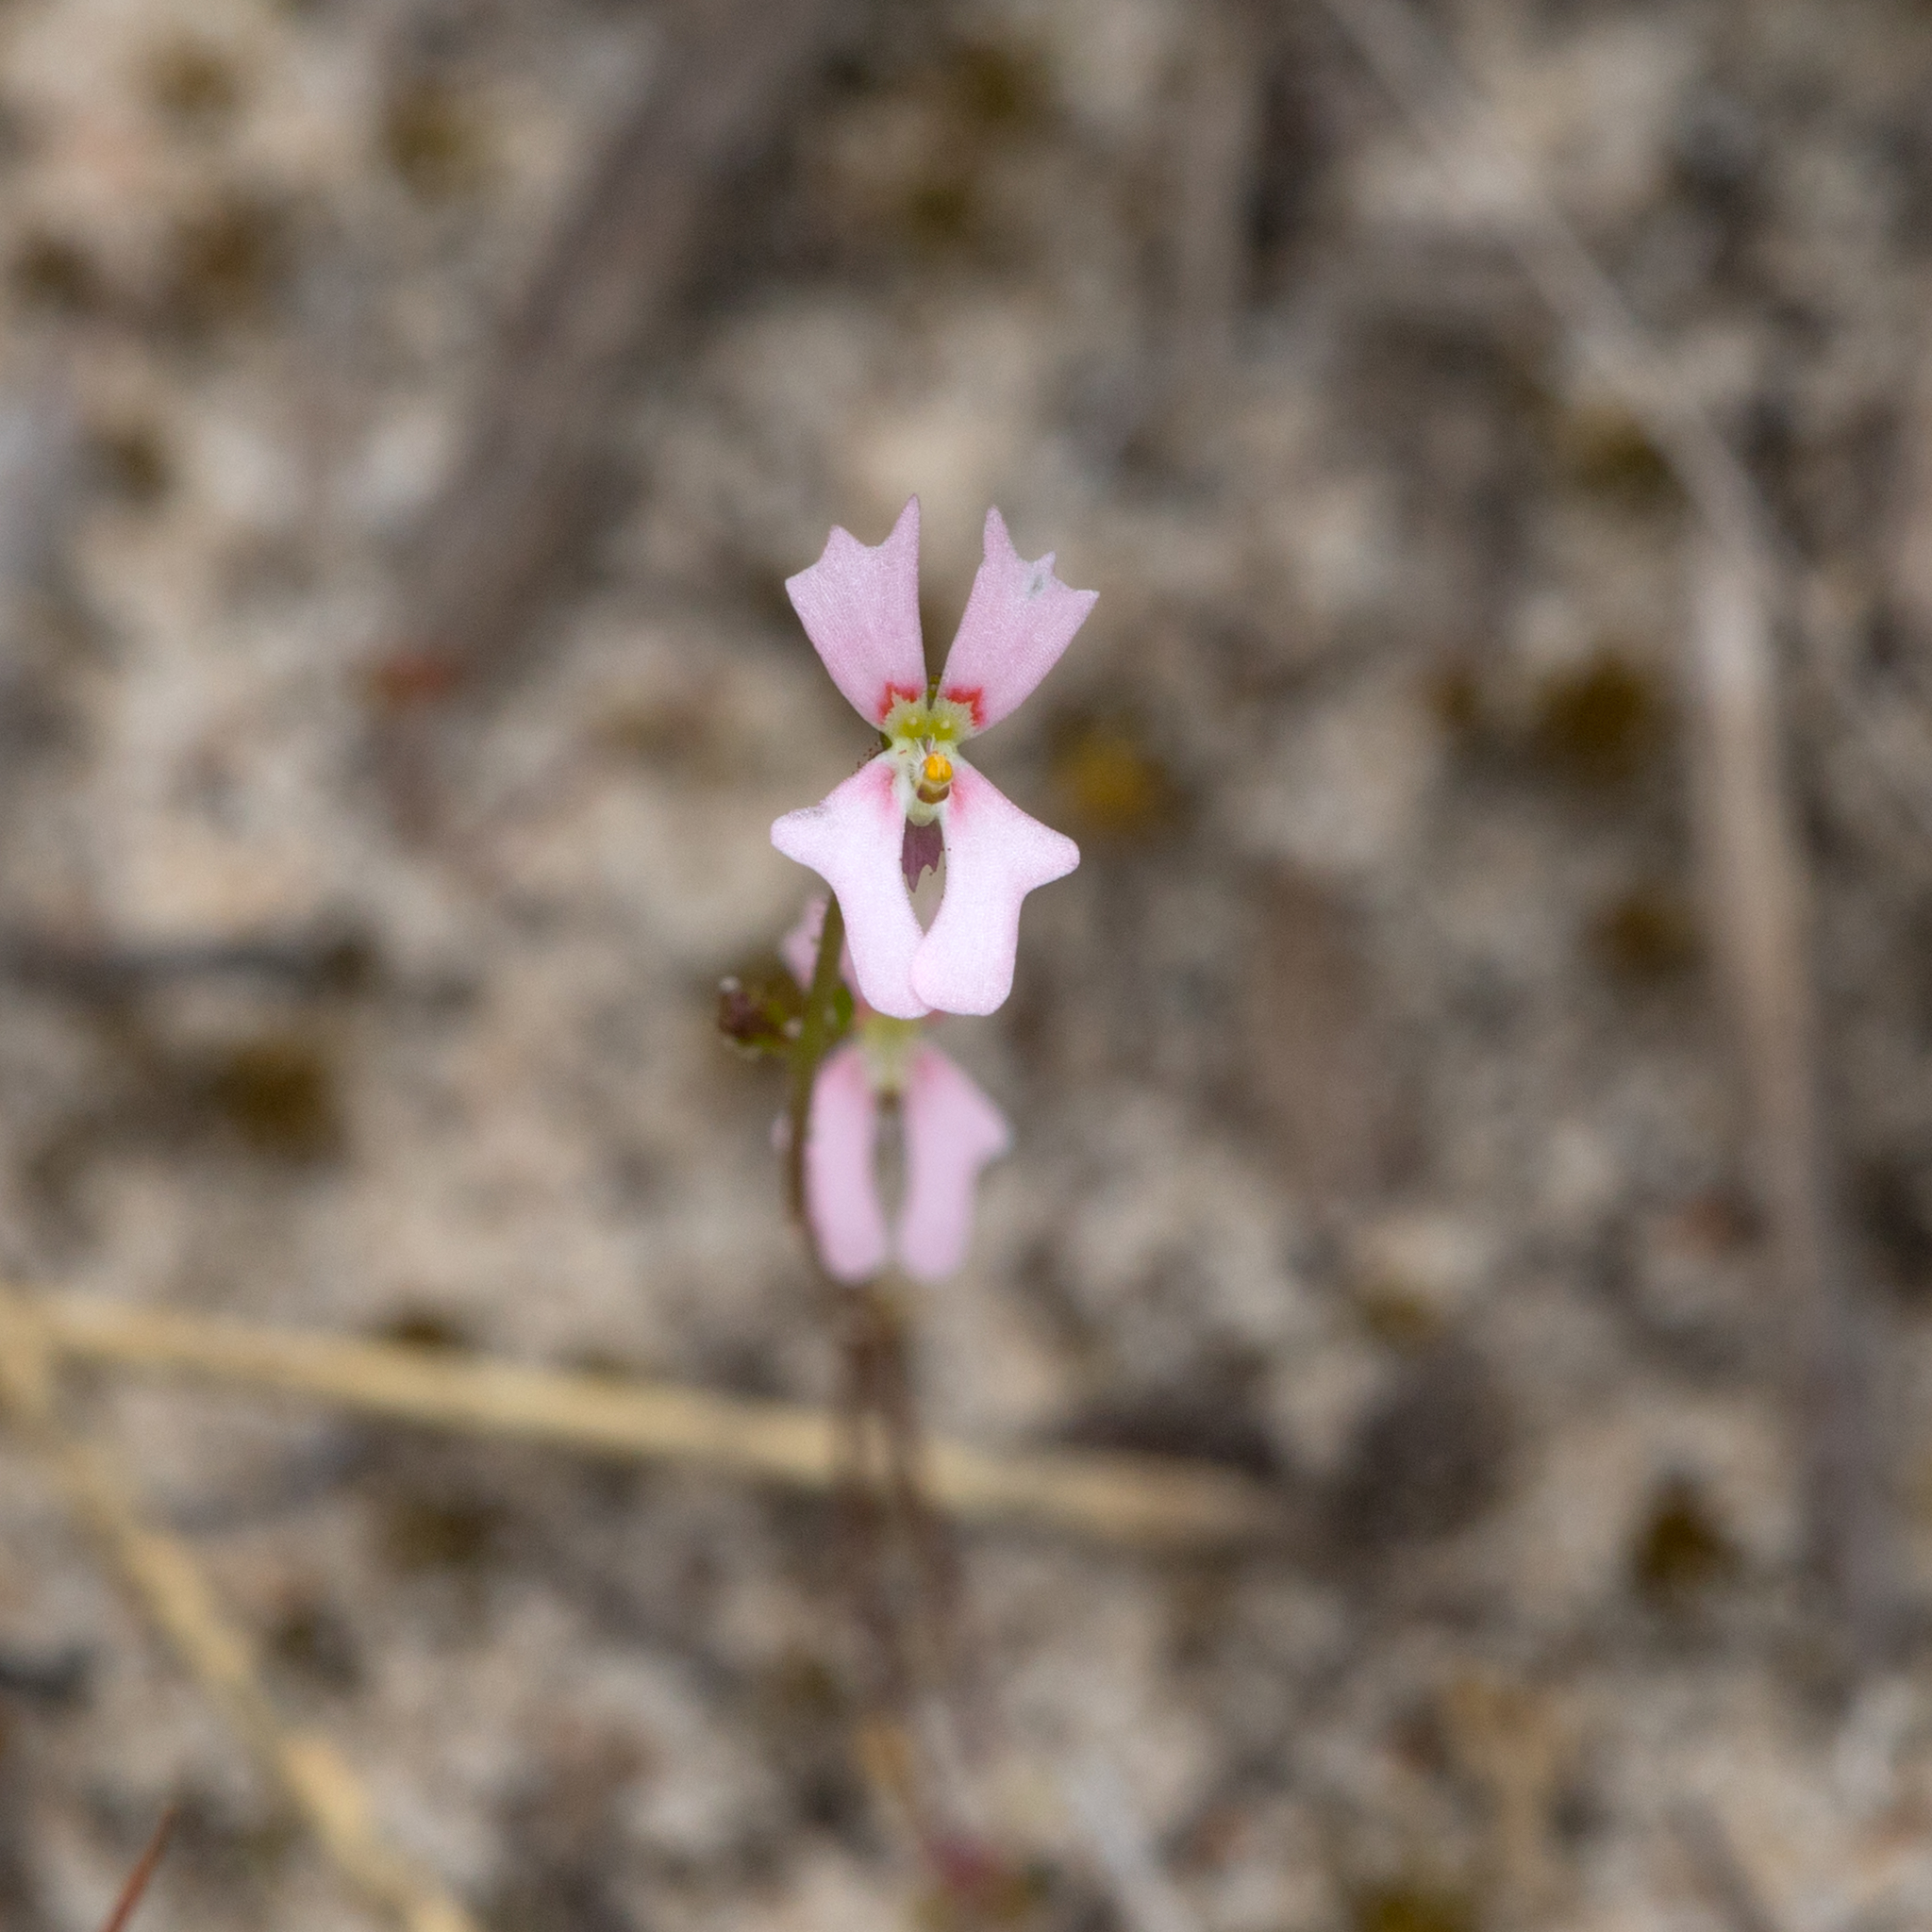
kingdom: Plantae
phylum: Tracheophyta
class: Magnoliopsida
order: Asterales
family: Stylidiaceae
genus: Stylidium
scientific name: Stylidium calcaratum
